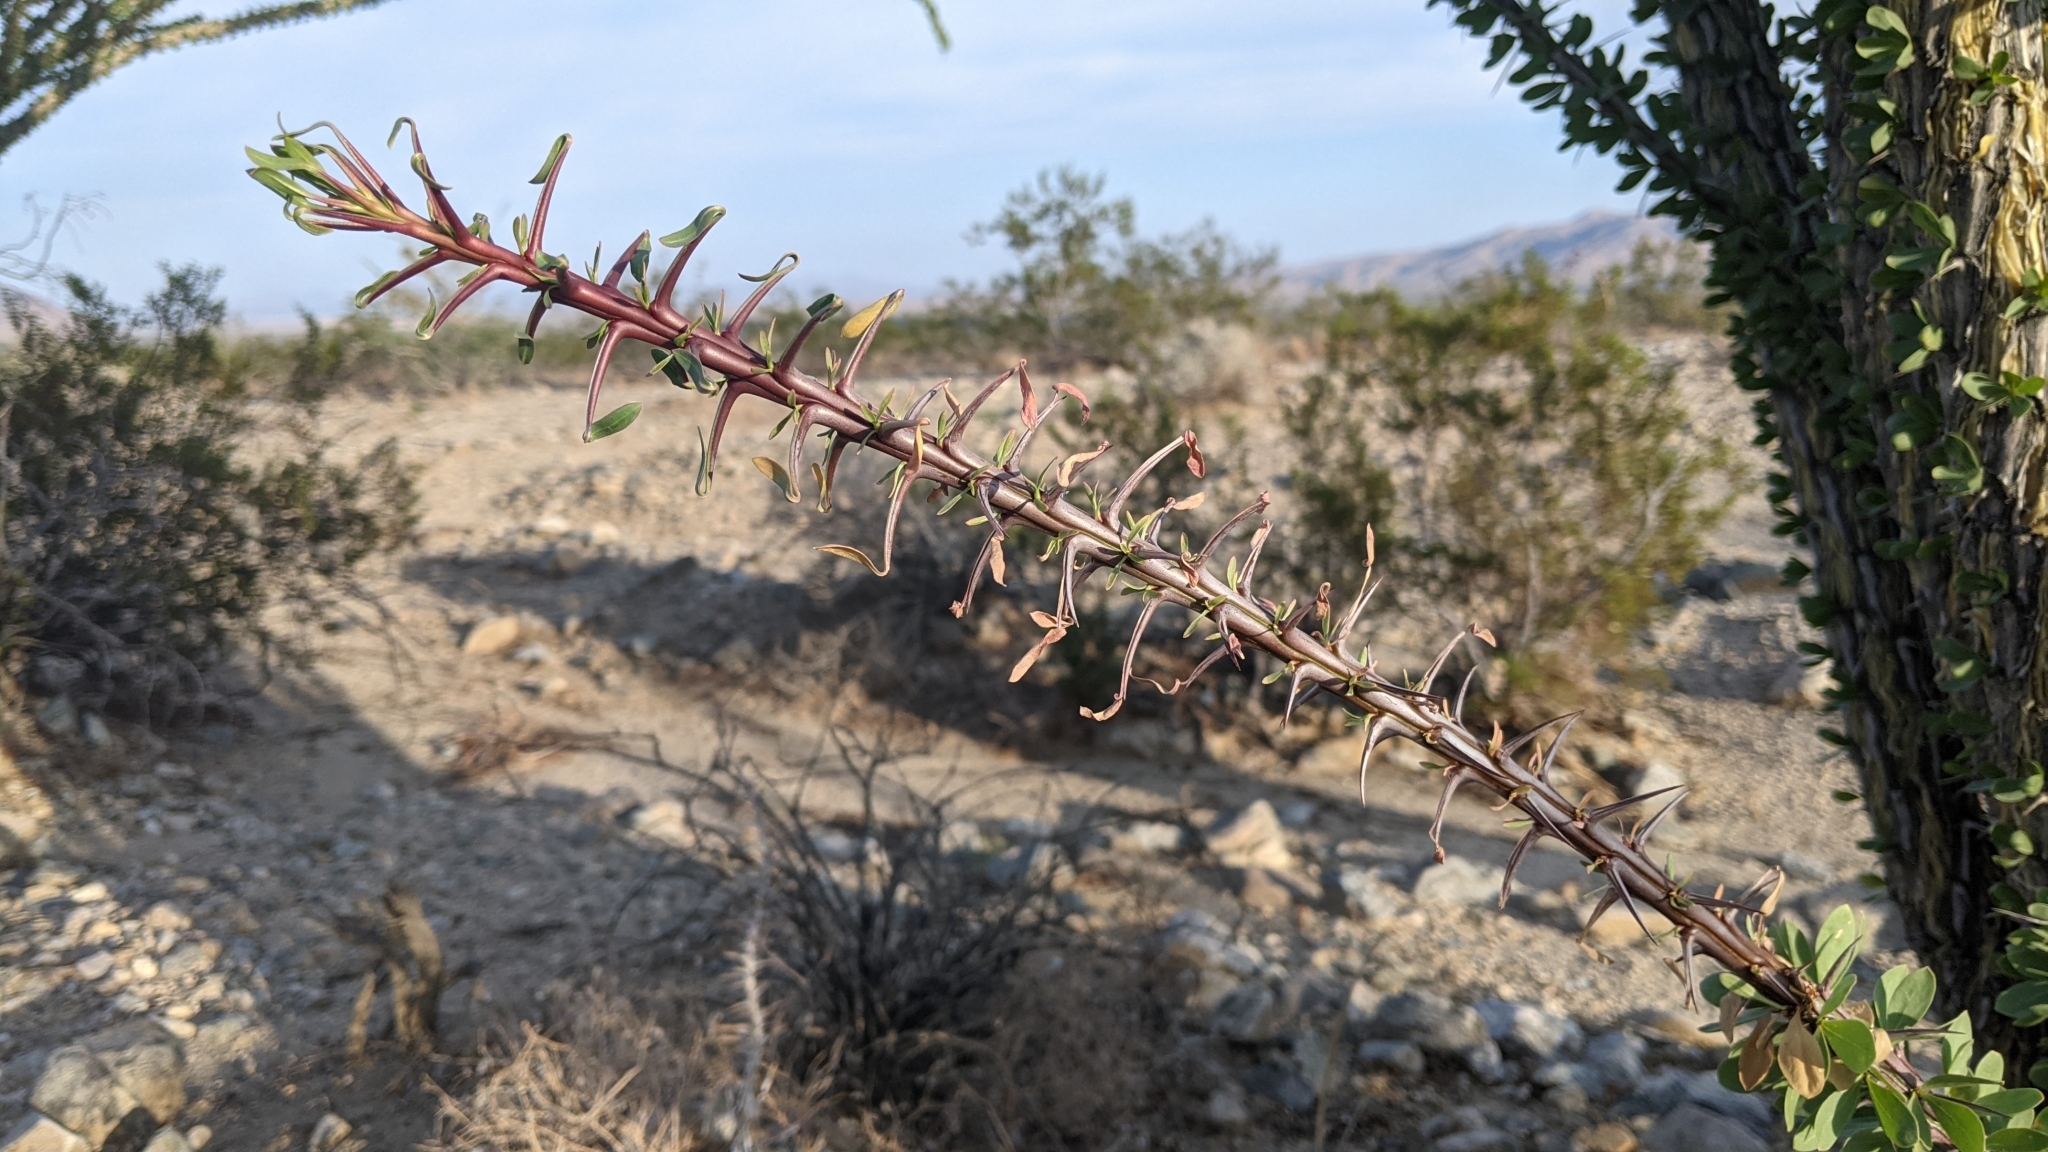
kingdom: Plantae
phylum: Tracheophyta
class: Magnoliopsida
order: Ericales
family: Fouquieriaceae
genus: Fouquieria
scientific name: Fouquieria splendens
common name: Vine-cactus
